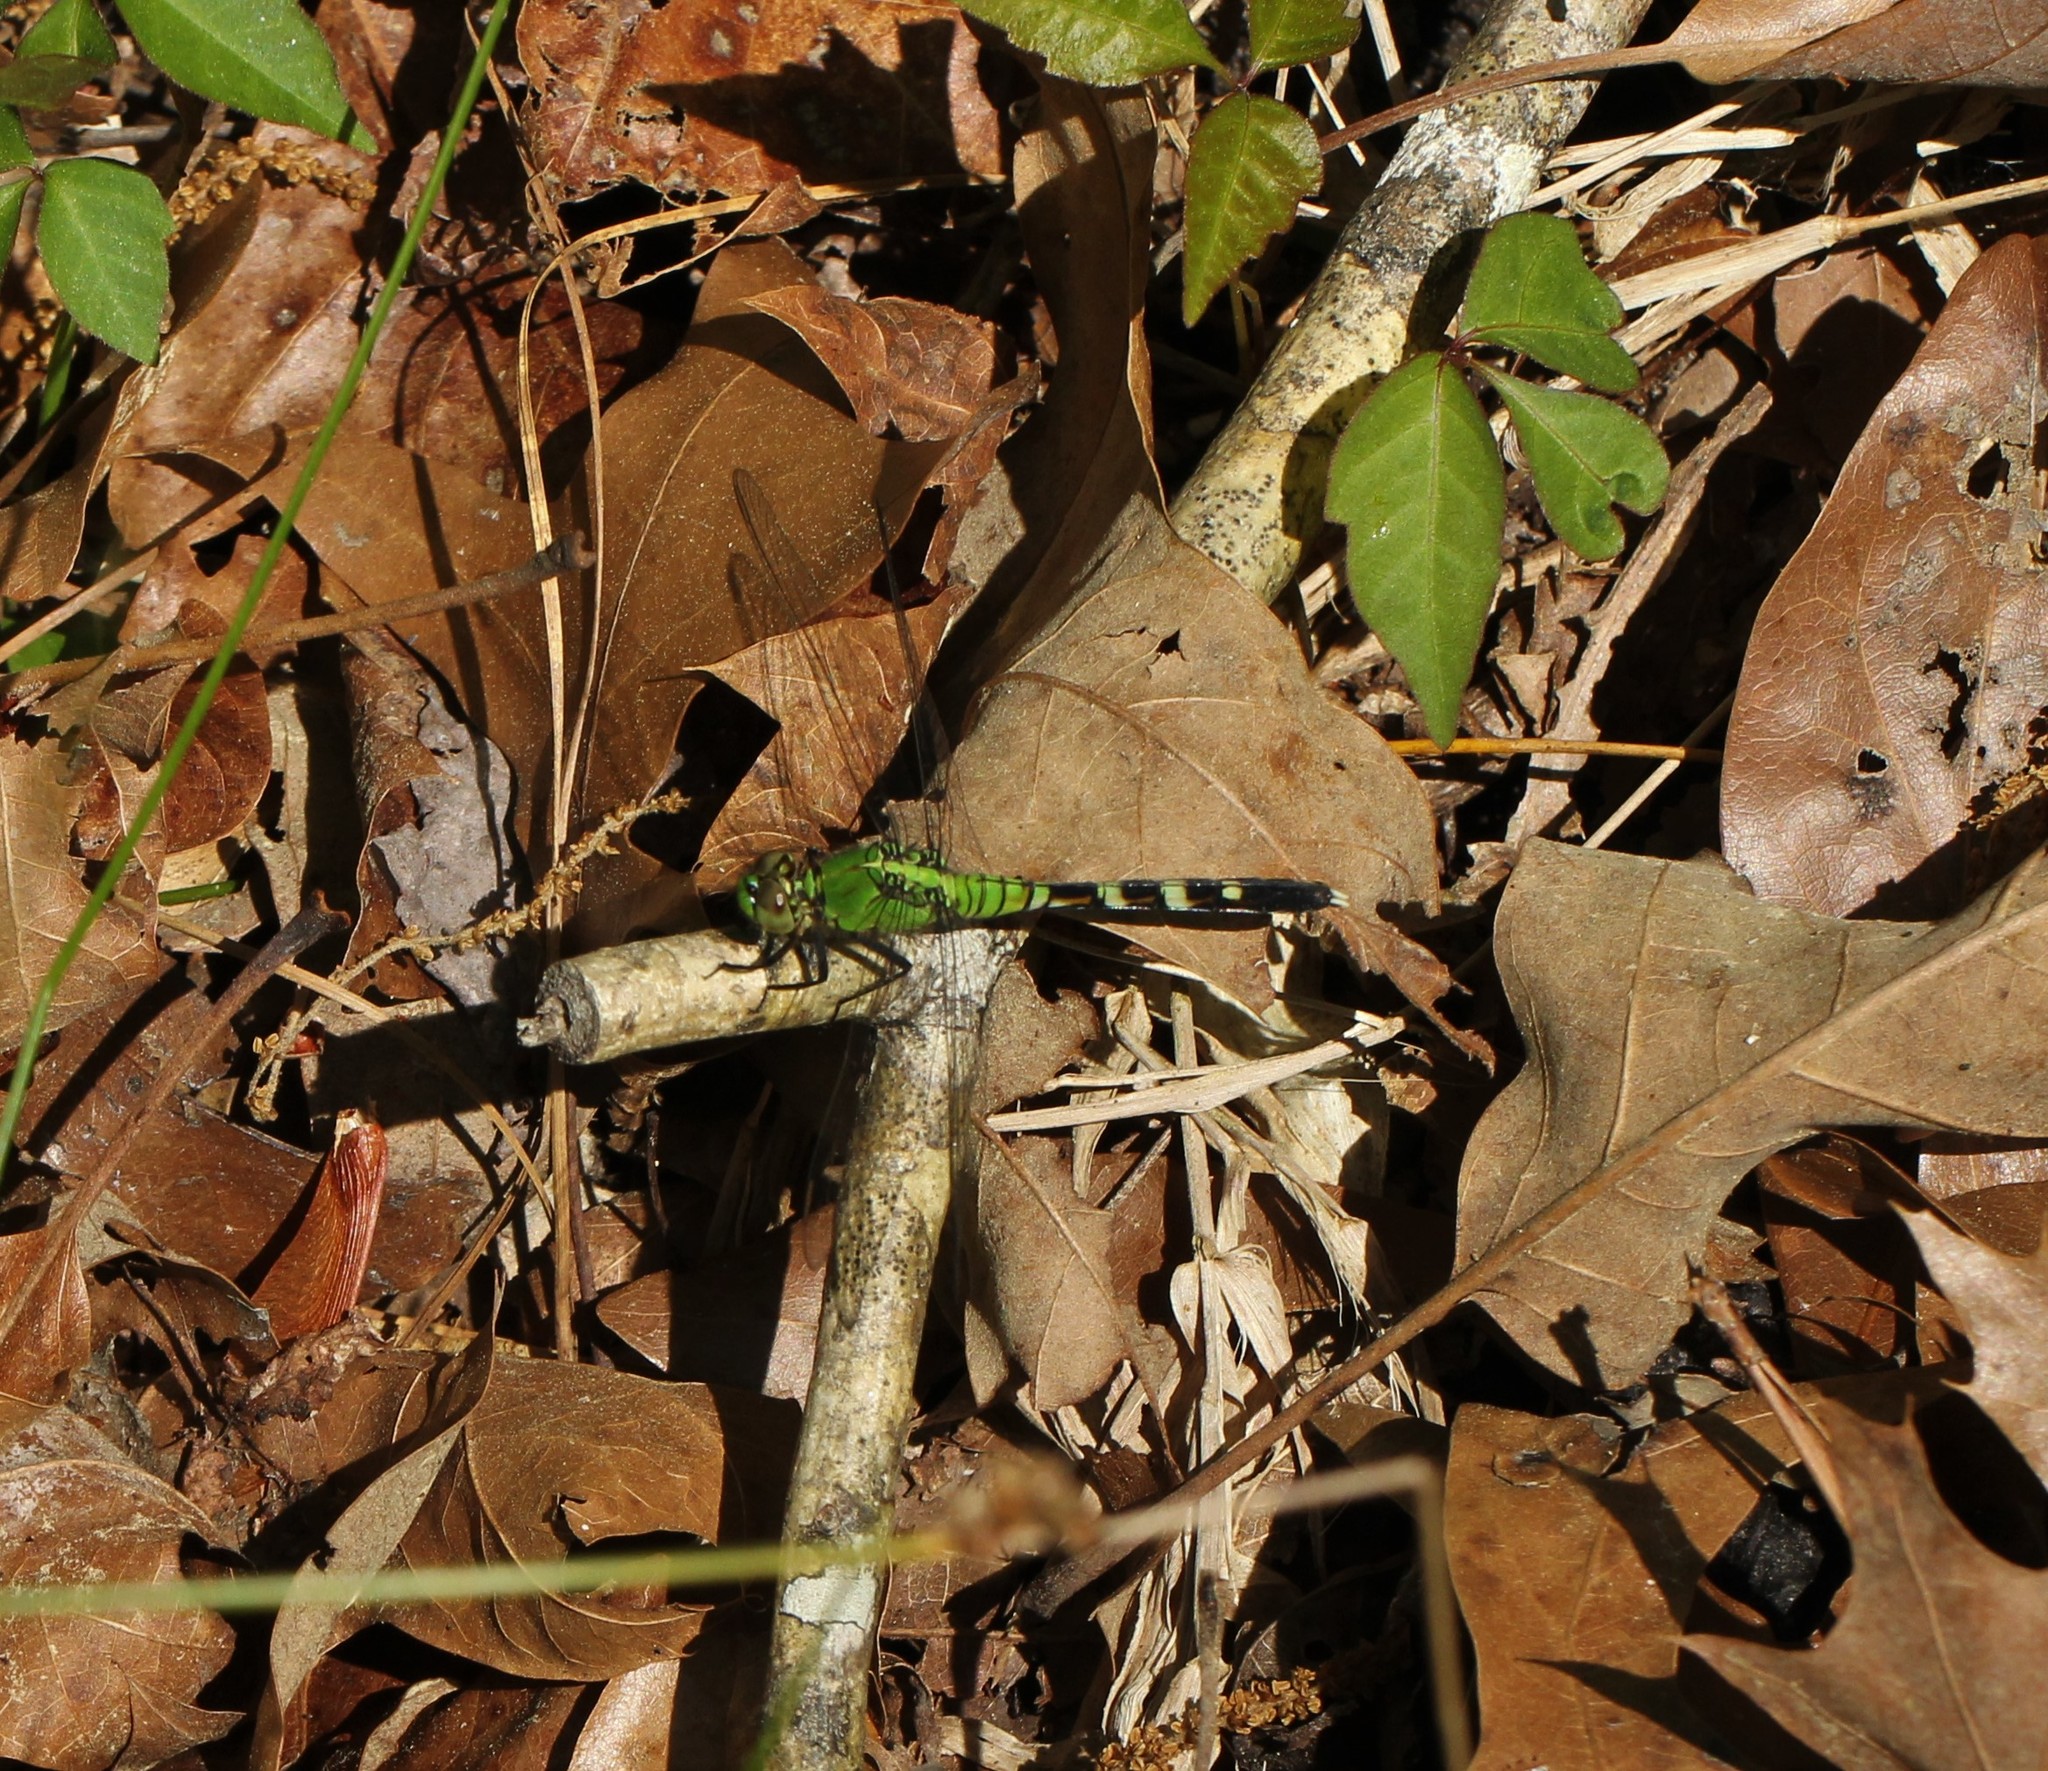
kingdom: Animalia
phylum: Arthropoda
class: Insecta
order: Odonata
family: Libellulidae
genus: Erythemis
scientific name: Erythemis simplicicollis
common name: Eastern pondhawk
